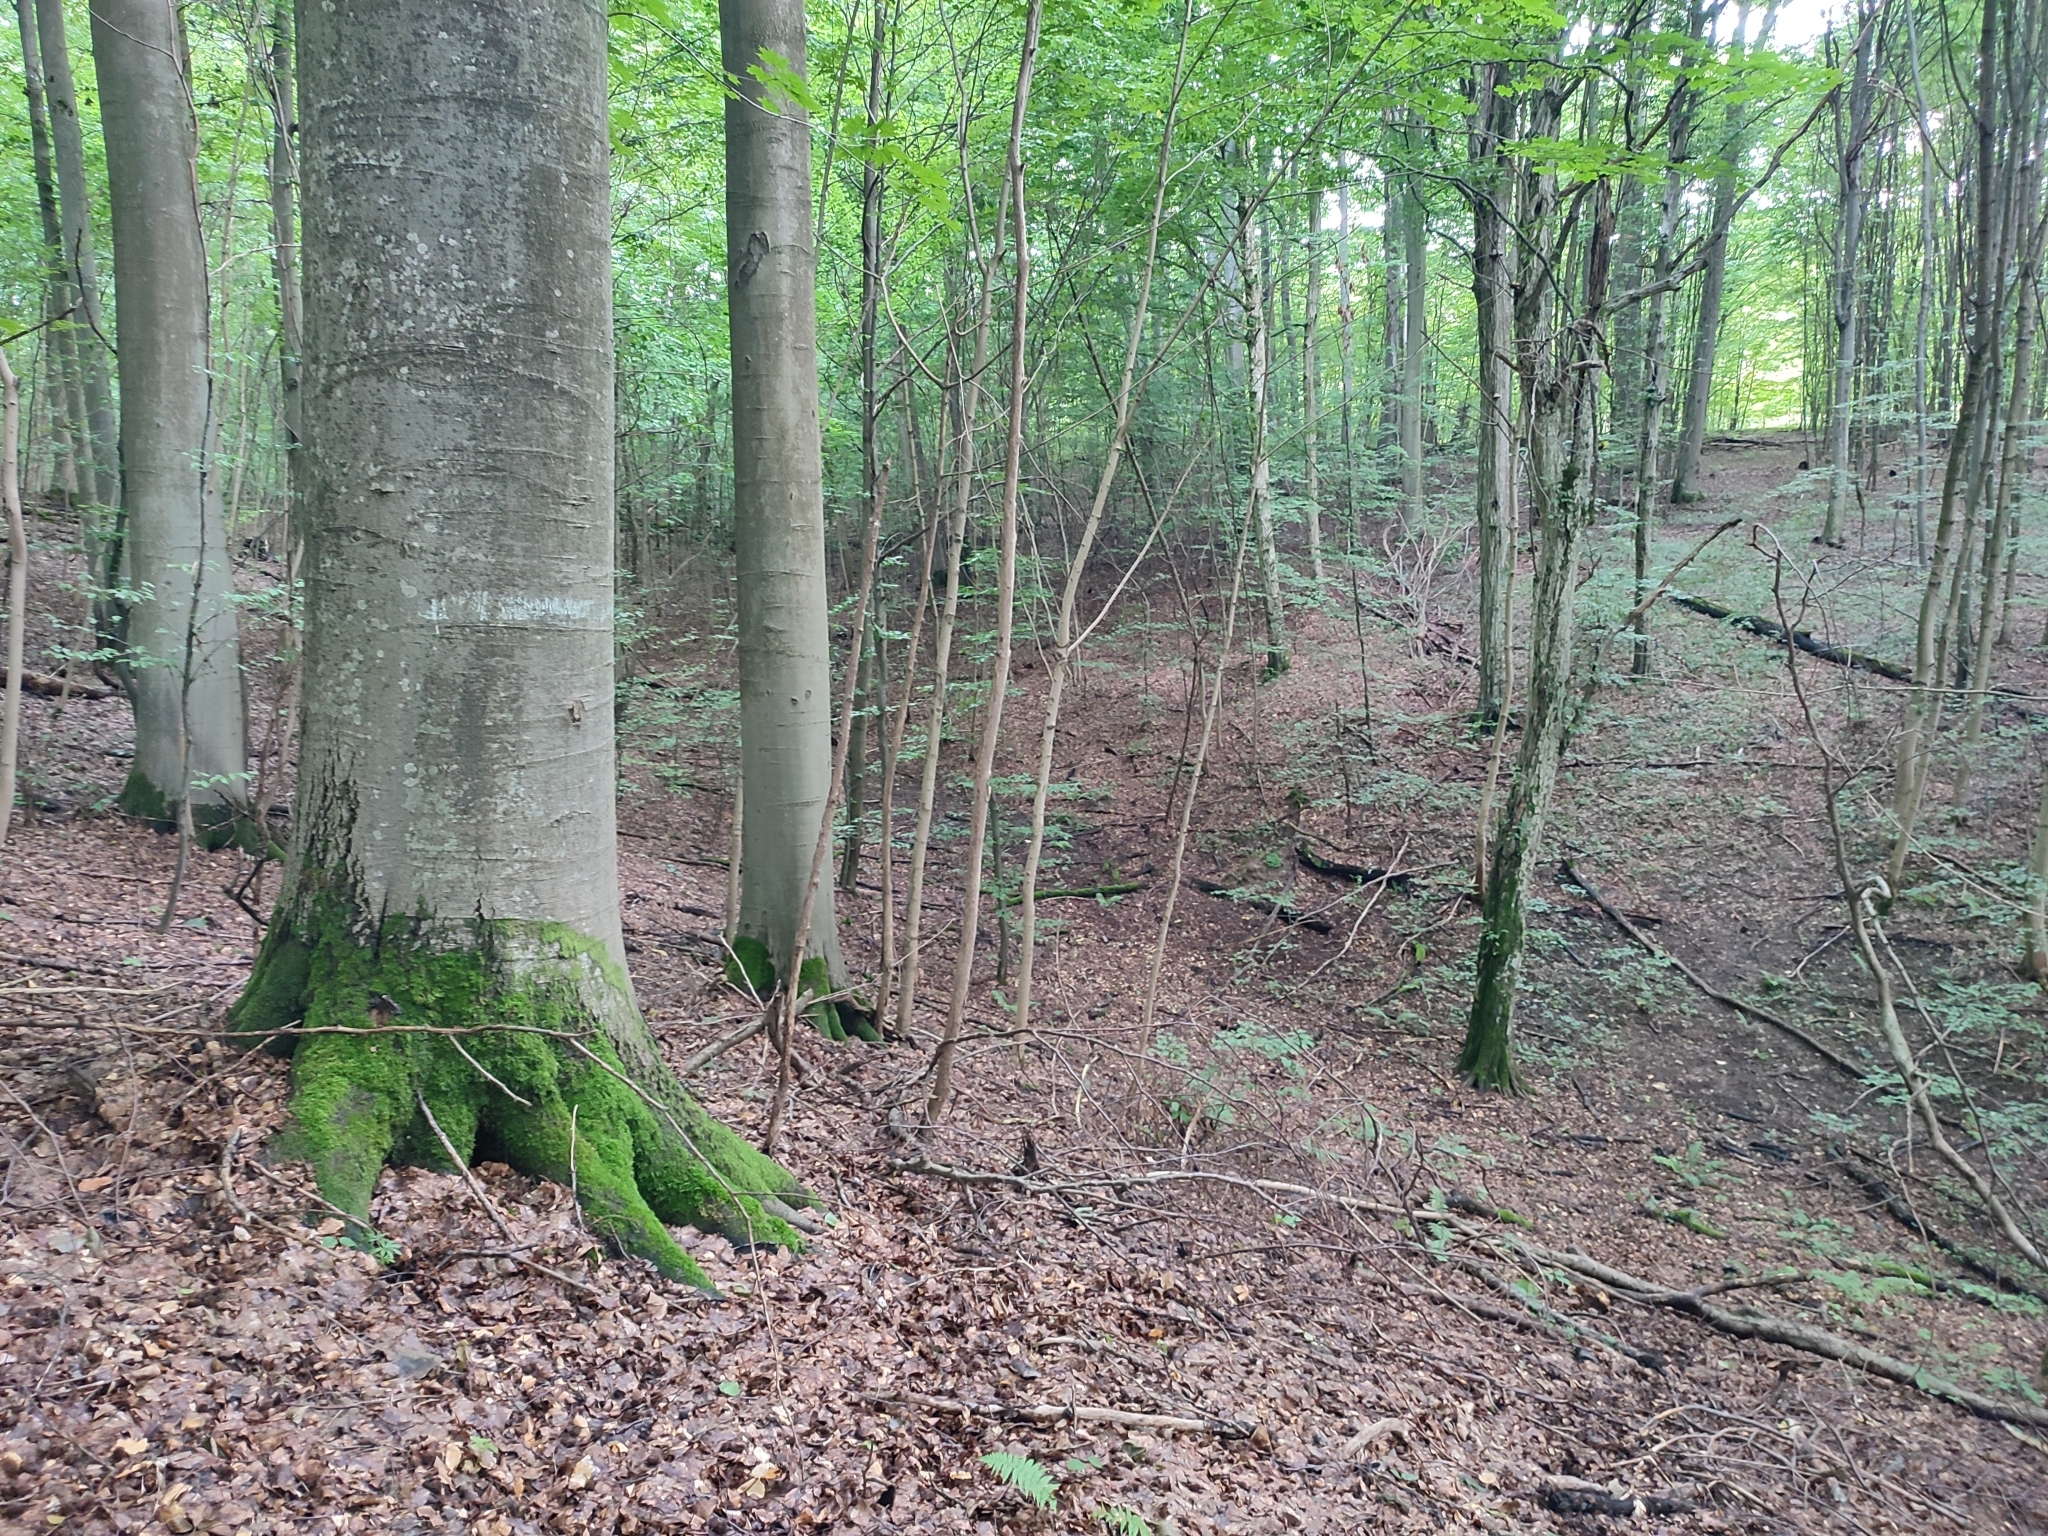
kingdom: Plantae
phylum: Tracheophyta
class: Magnoliopsida
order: Fagales
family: Fagaceae
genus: Fagus
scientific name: Fagus sylvatica
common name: Beech
